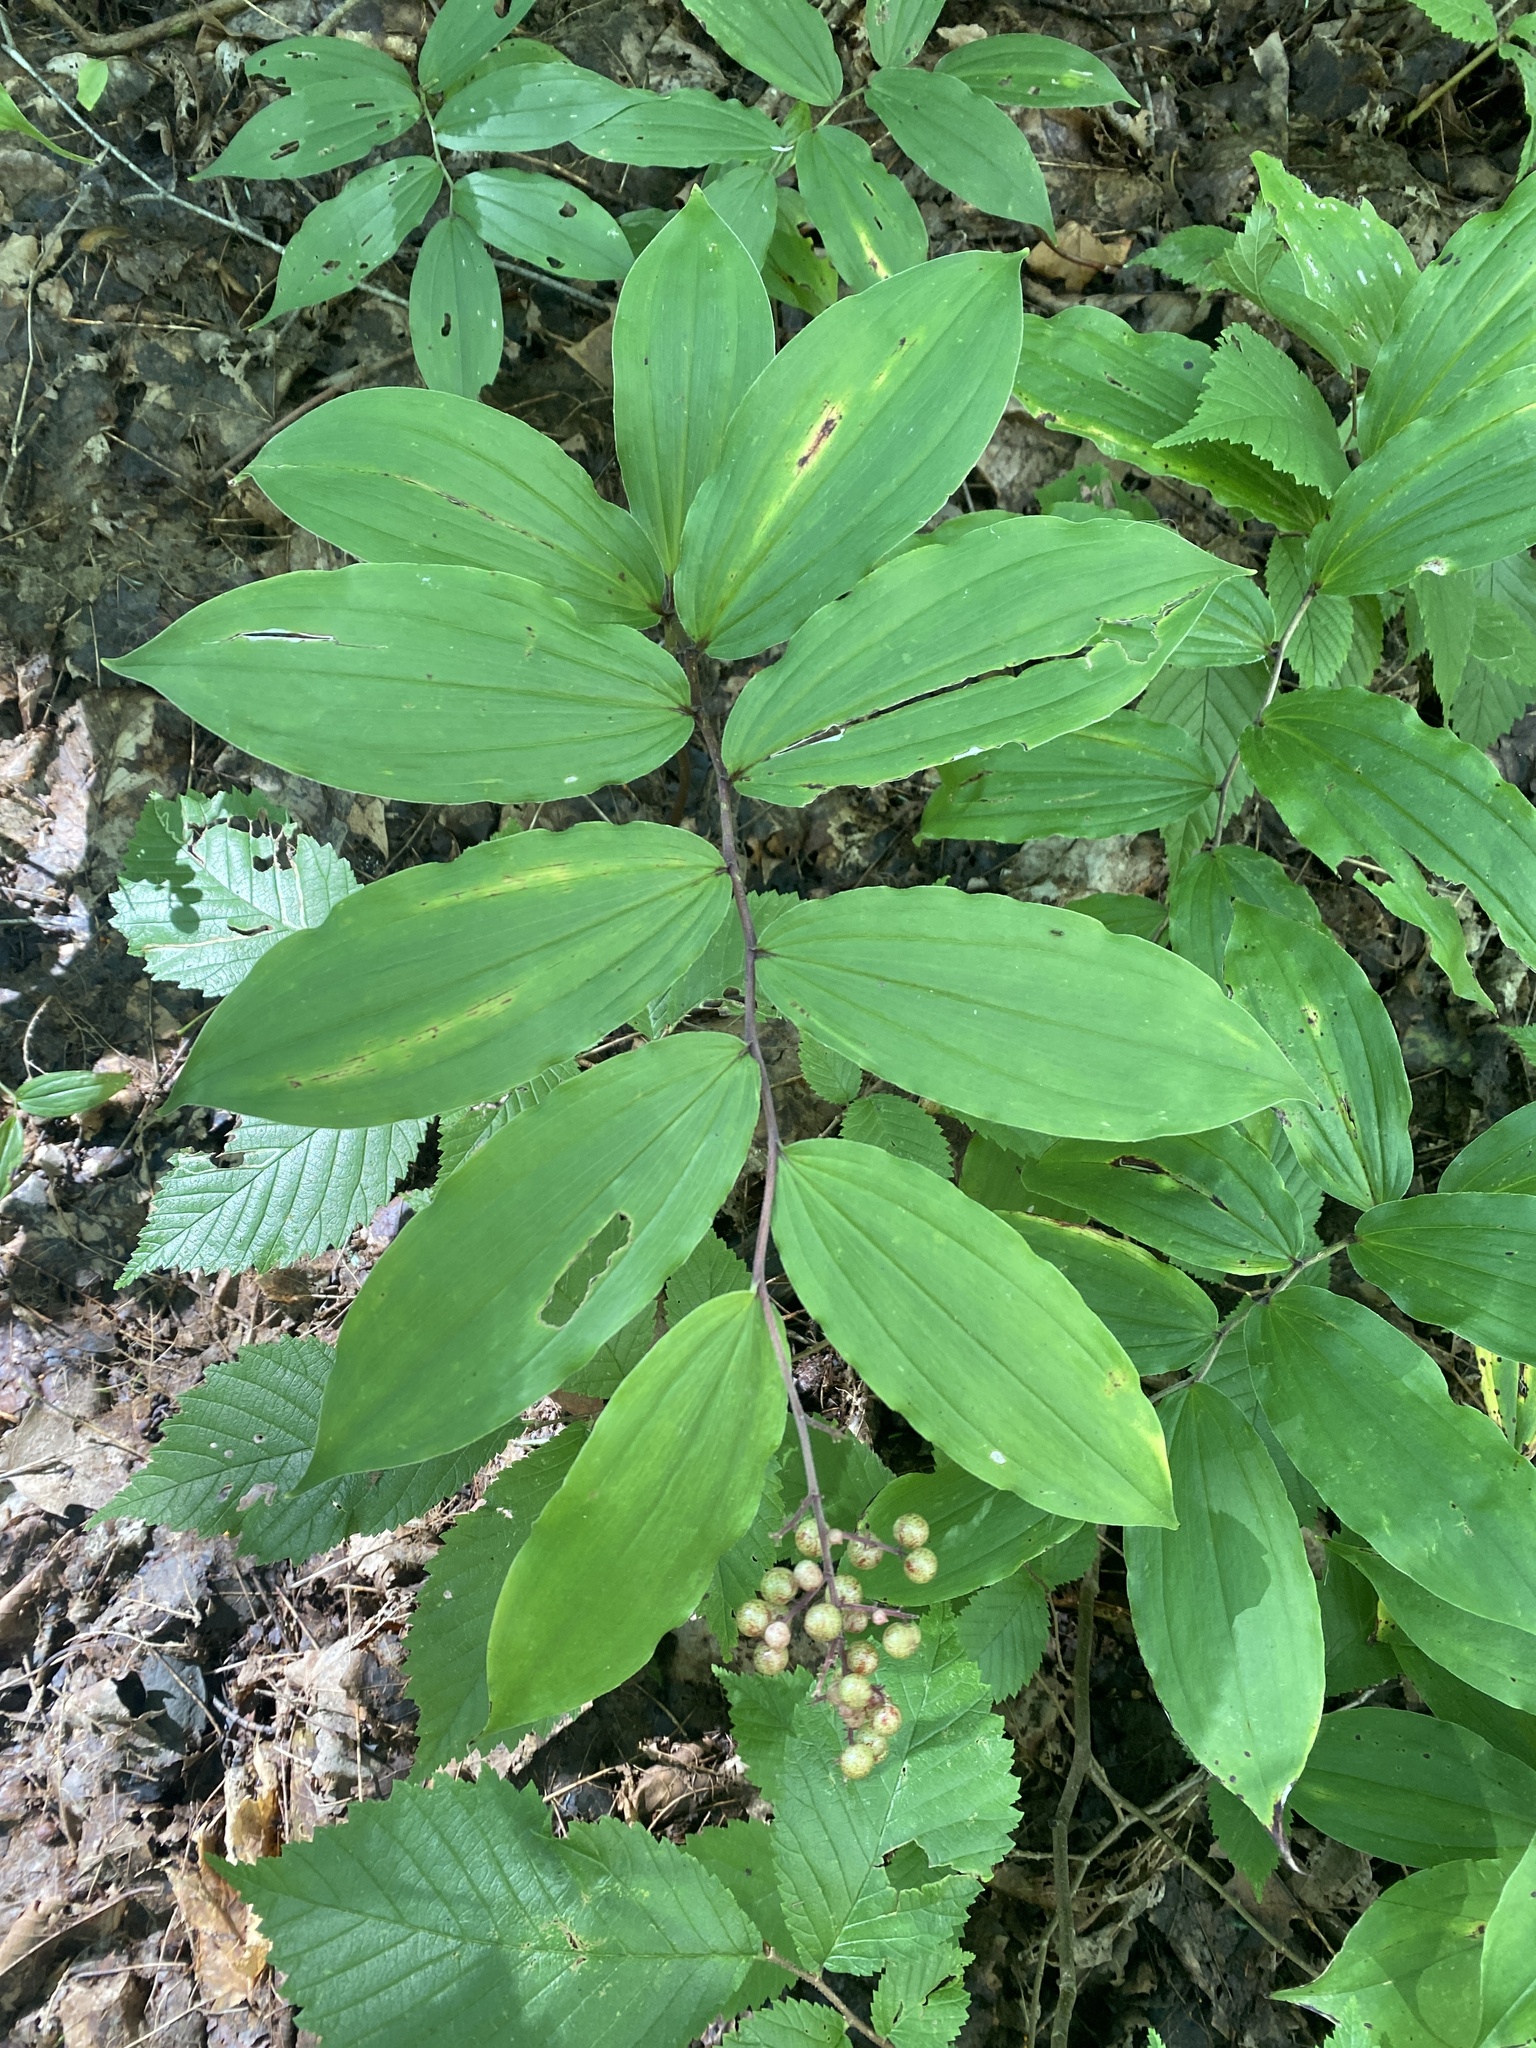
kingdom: Plantae
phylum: Tracheophyta
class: Liliopsida
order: Asparagales
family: Asparagaceae
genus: Maianthemum
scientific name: Maianthemum racemosum
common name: False spikenard
